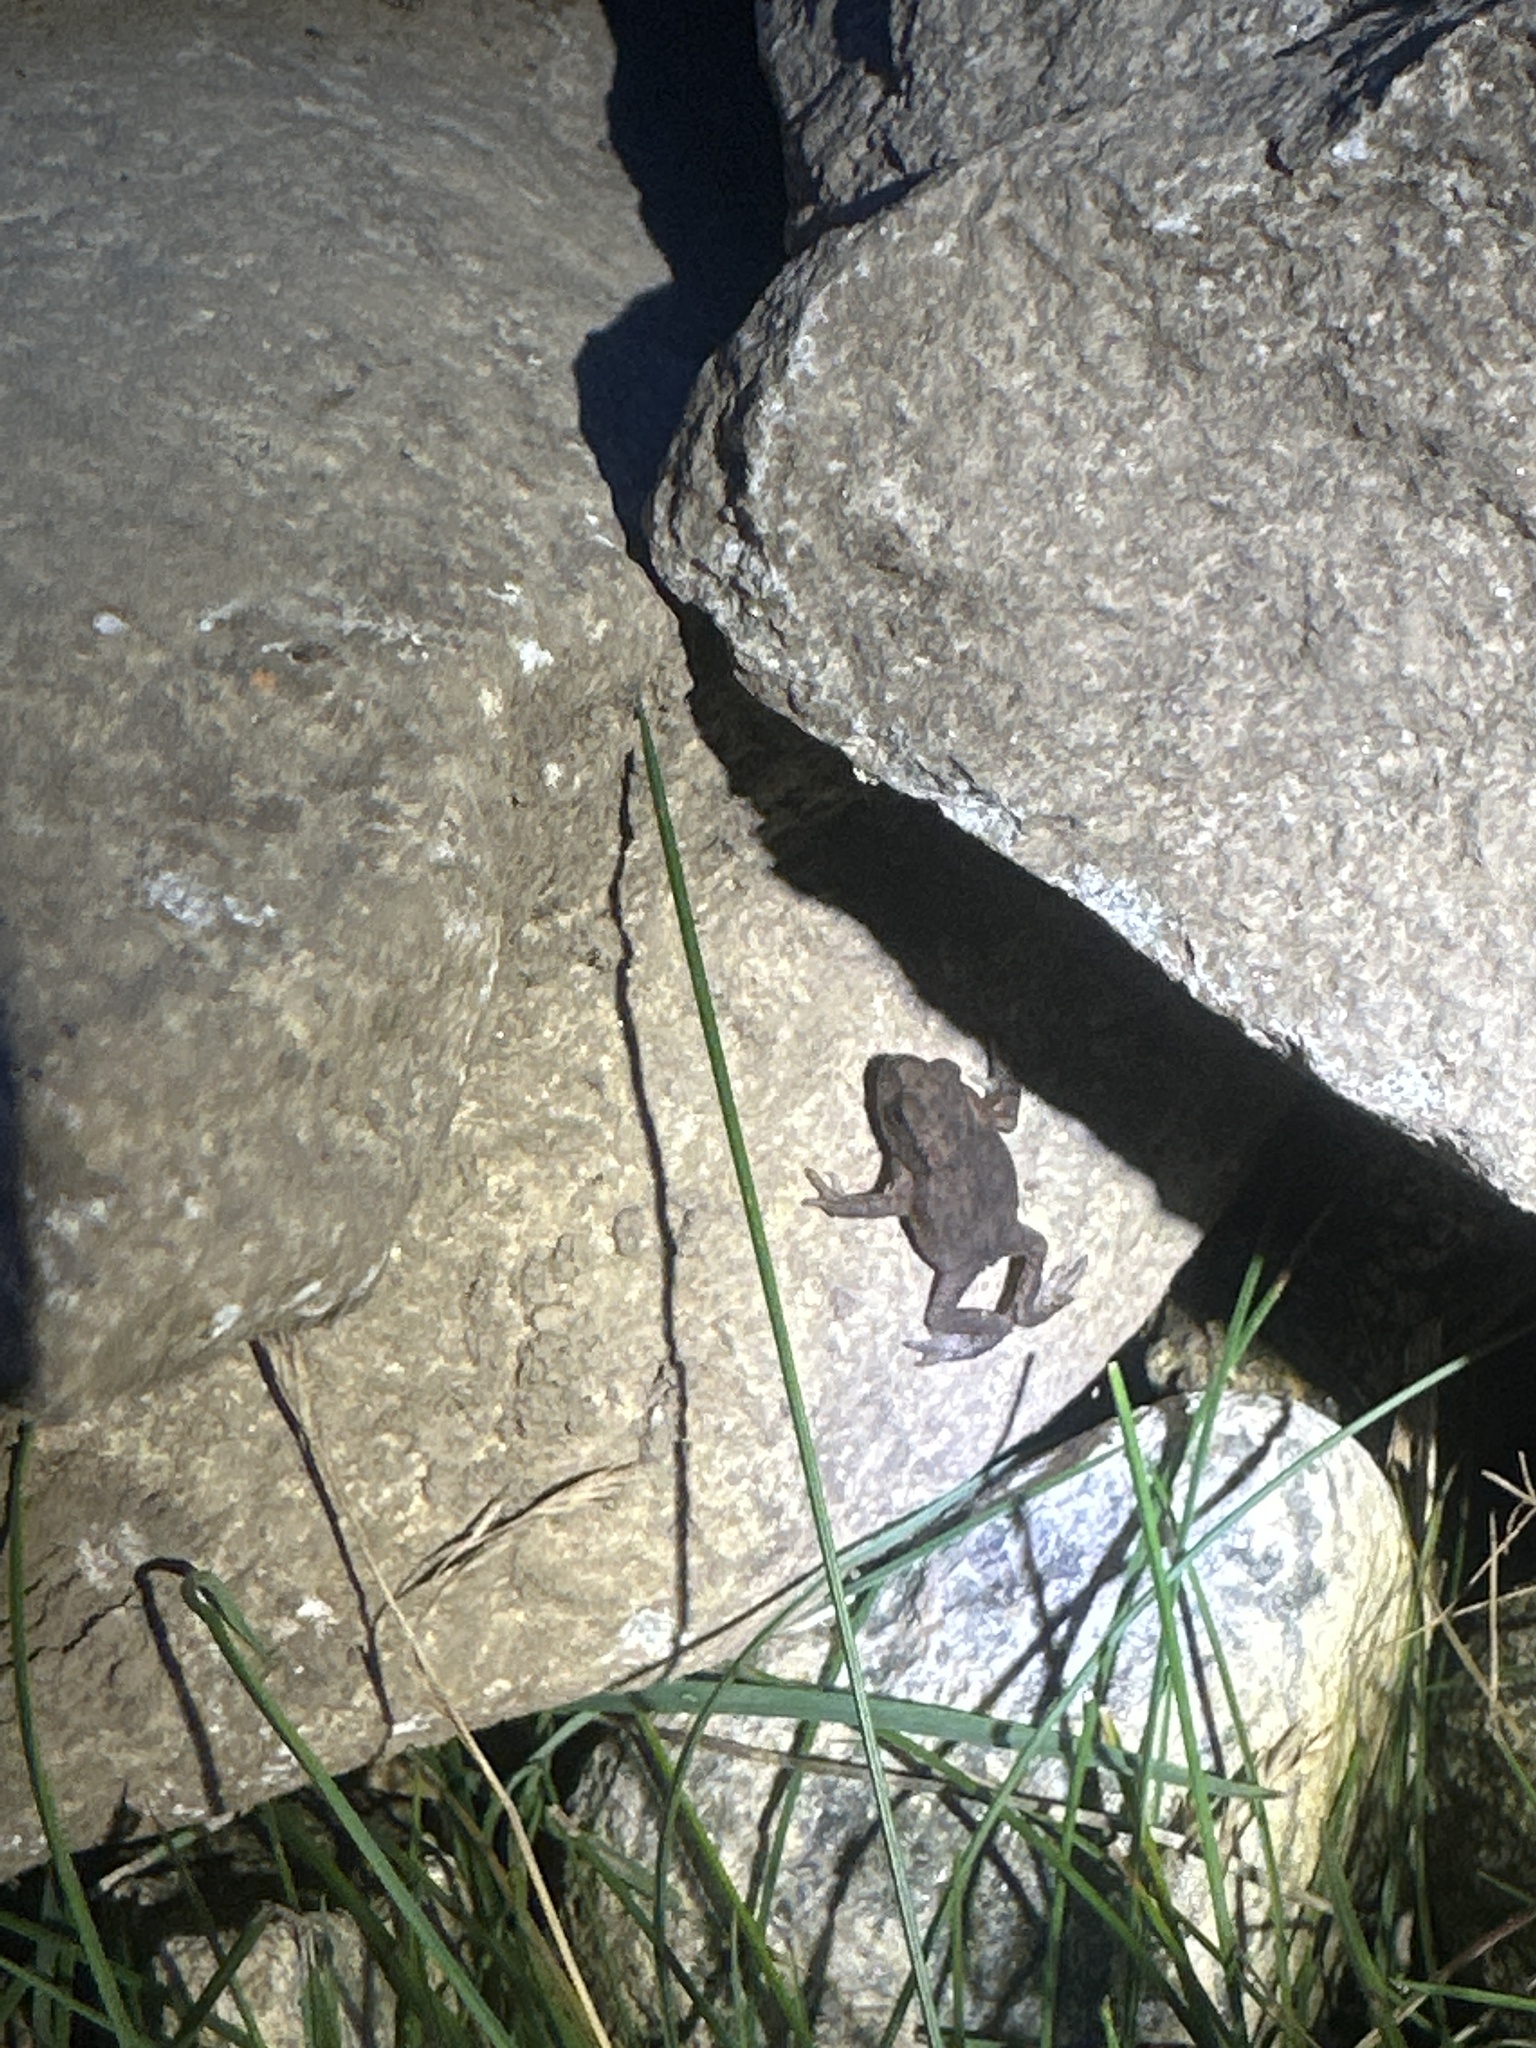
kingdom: Animalia
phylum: Chordata
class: Amphibia
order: Anura
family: Bufonidae
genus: Bufo
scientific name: Bufo bufo
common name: Common toad
